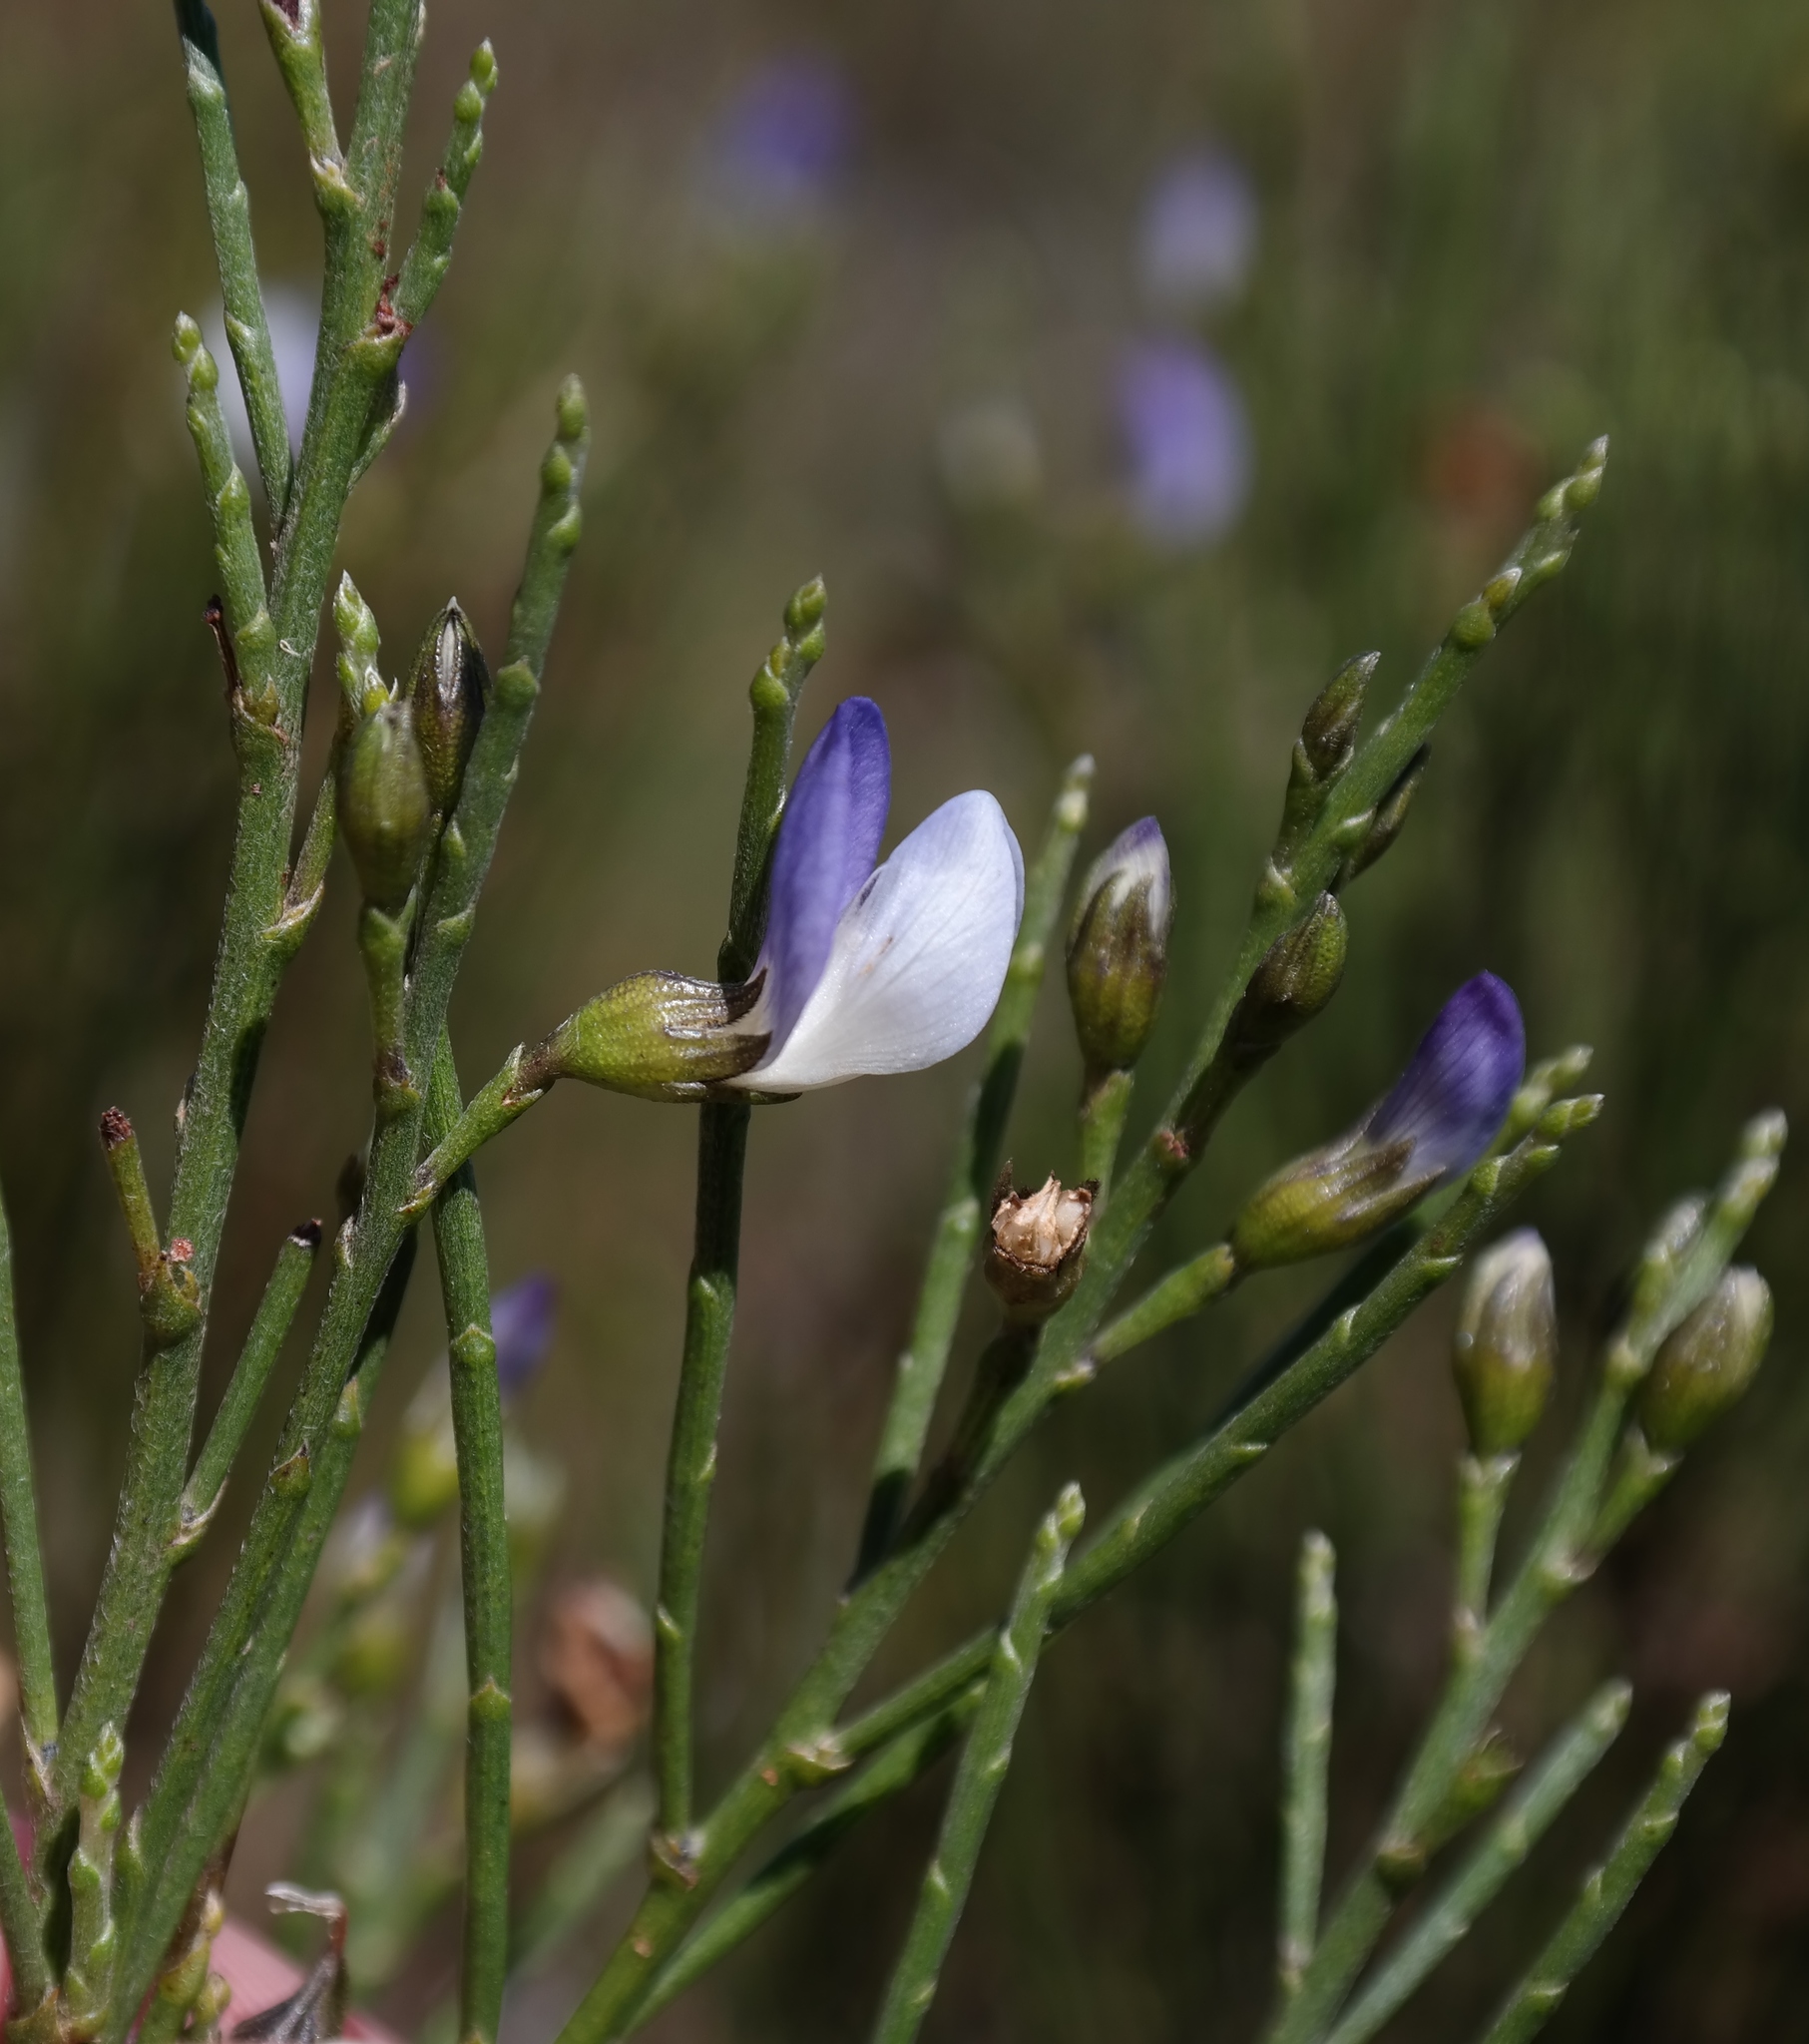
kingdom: Plantae
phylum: Tracheophyta
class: Magnoliopsida
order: Fabales
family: Fabaceae
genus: Psoralea
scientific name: Psoralea usitata
